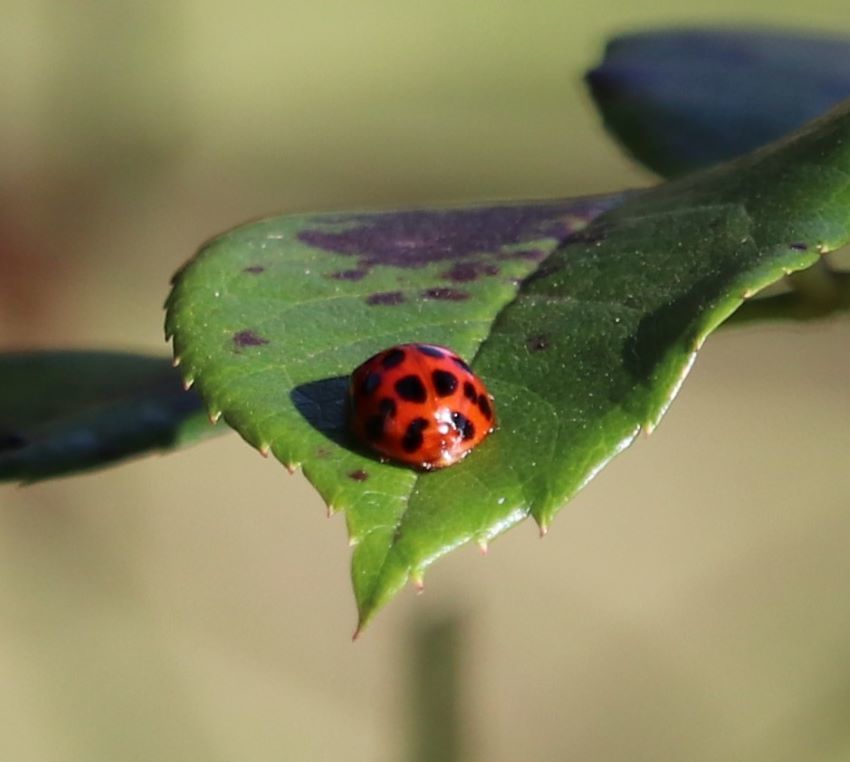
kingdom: Animalia
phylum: Arthropoda
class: Insecta
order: Coleoptera
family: Coccinellidae
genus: Harmonia
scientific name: Harmonia axyridis
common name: Harlequin ladybird
